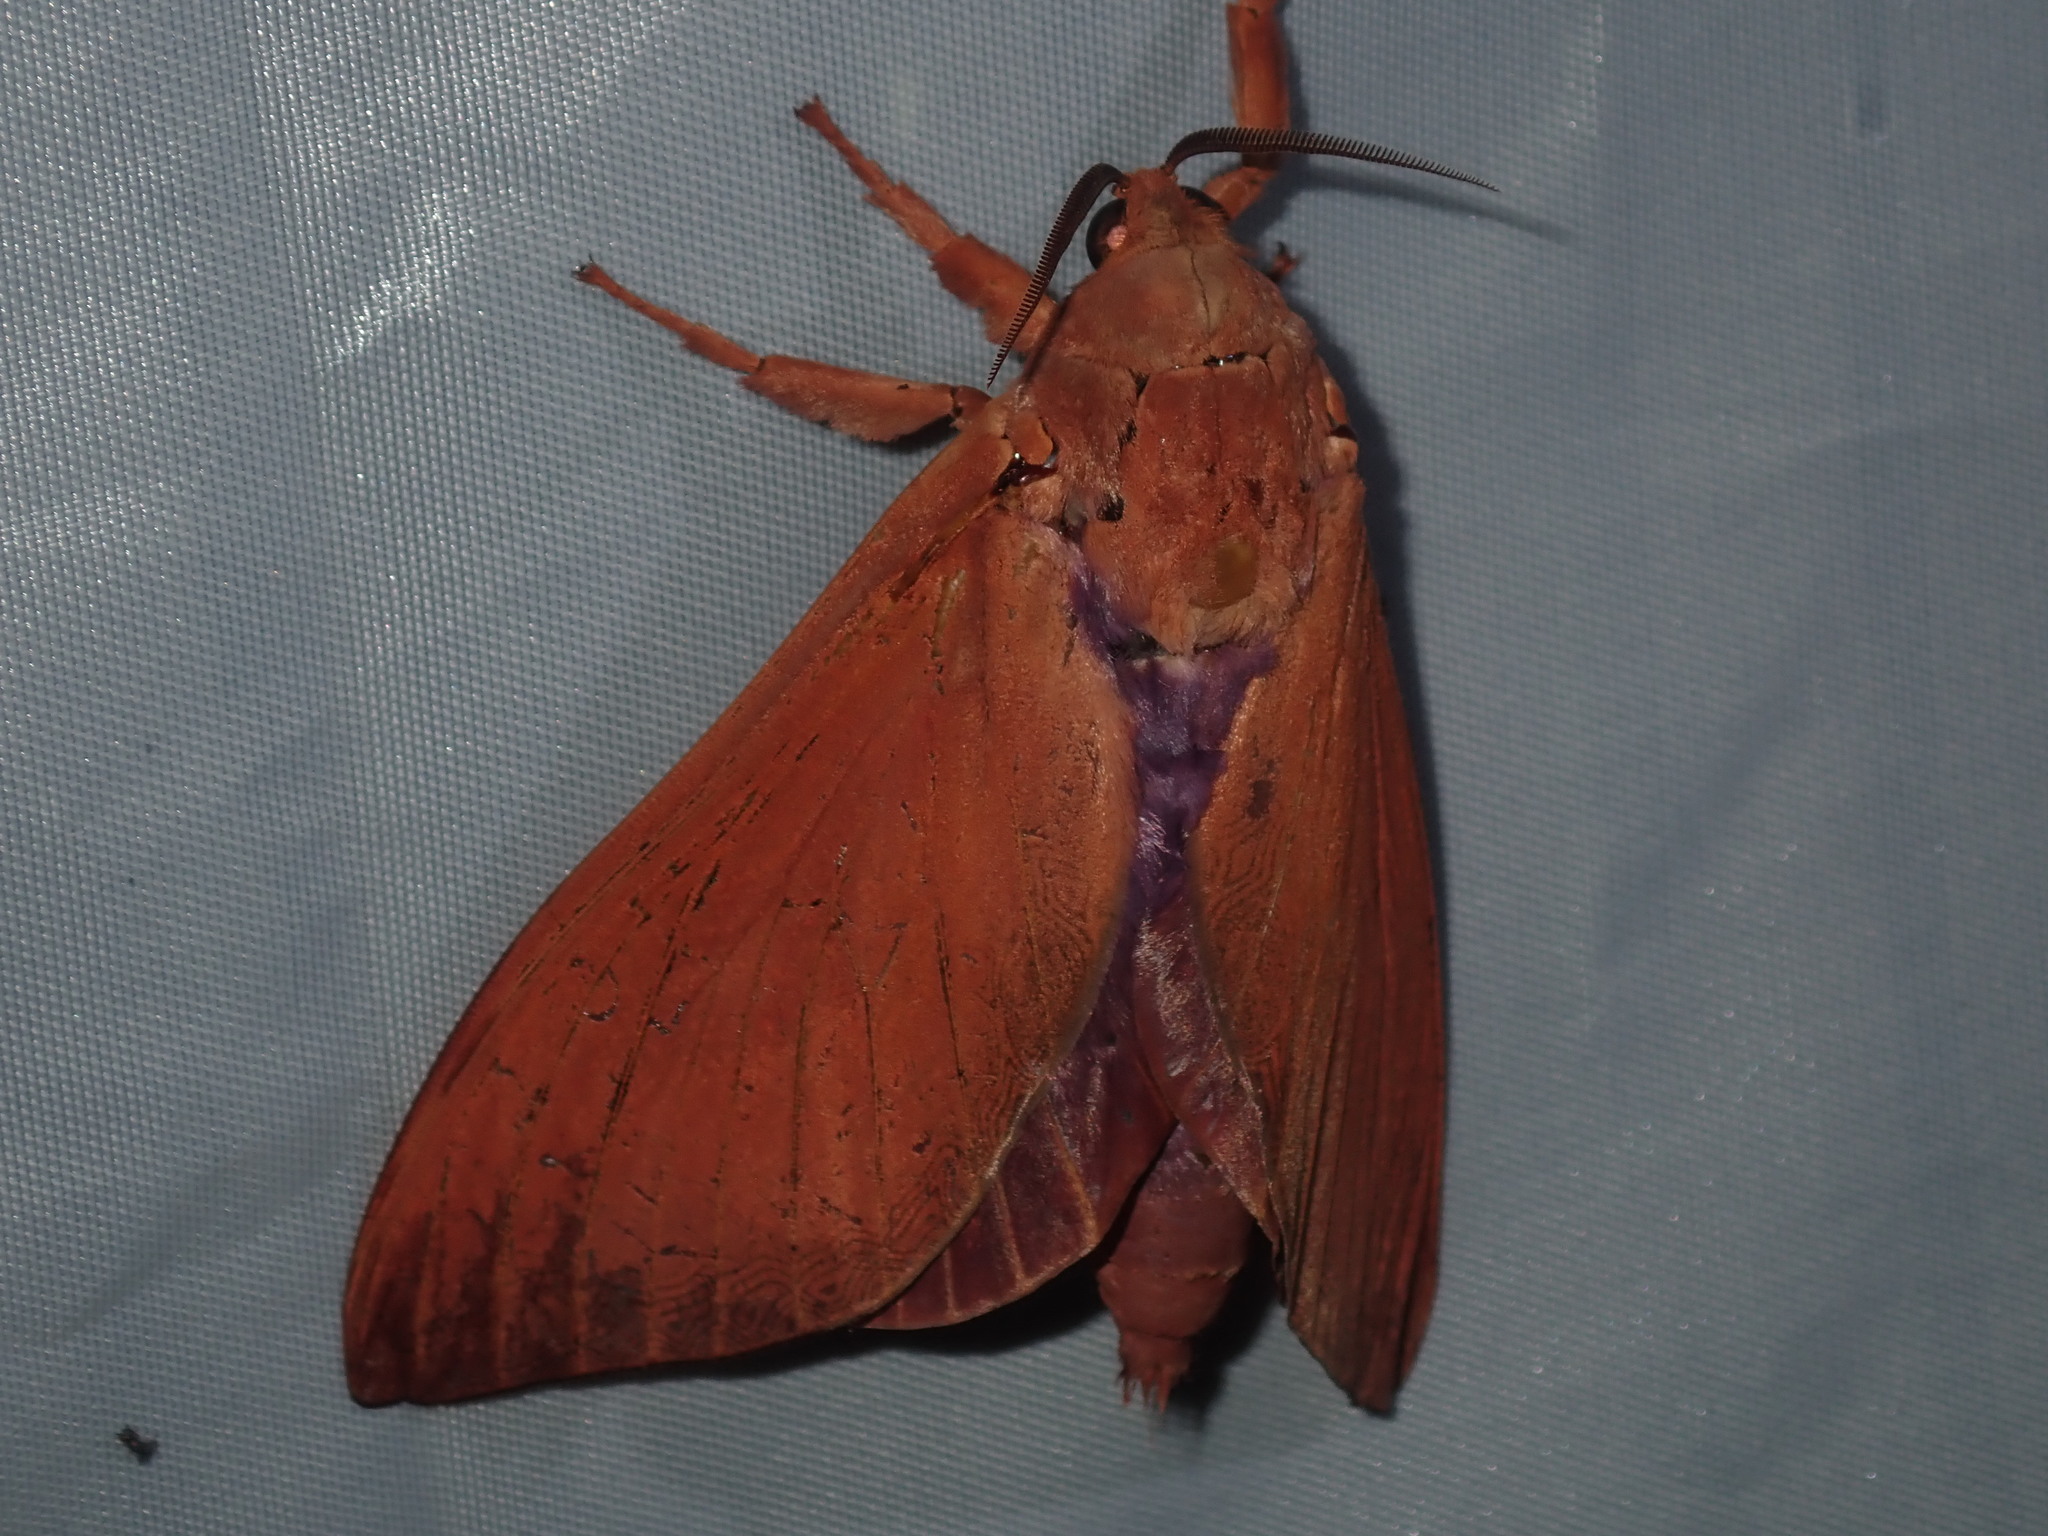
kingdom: Animalia
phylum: Arthropoda
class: Insecta
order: Lepidoptera
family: Hepialidae
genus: Abantiades
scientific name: Abantiades hyalinatus
